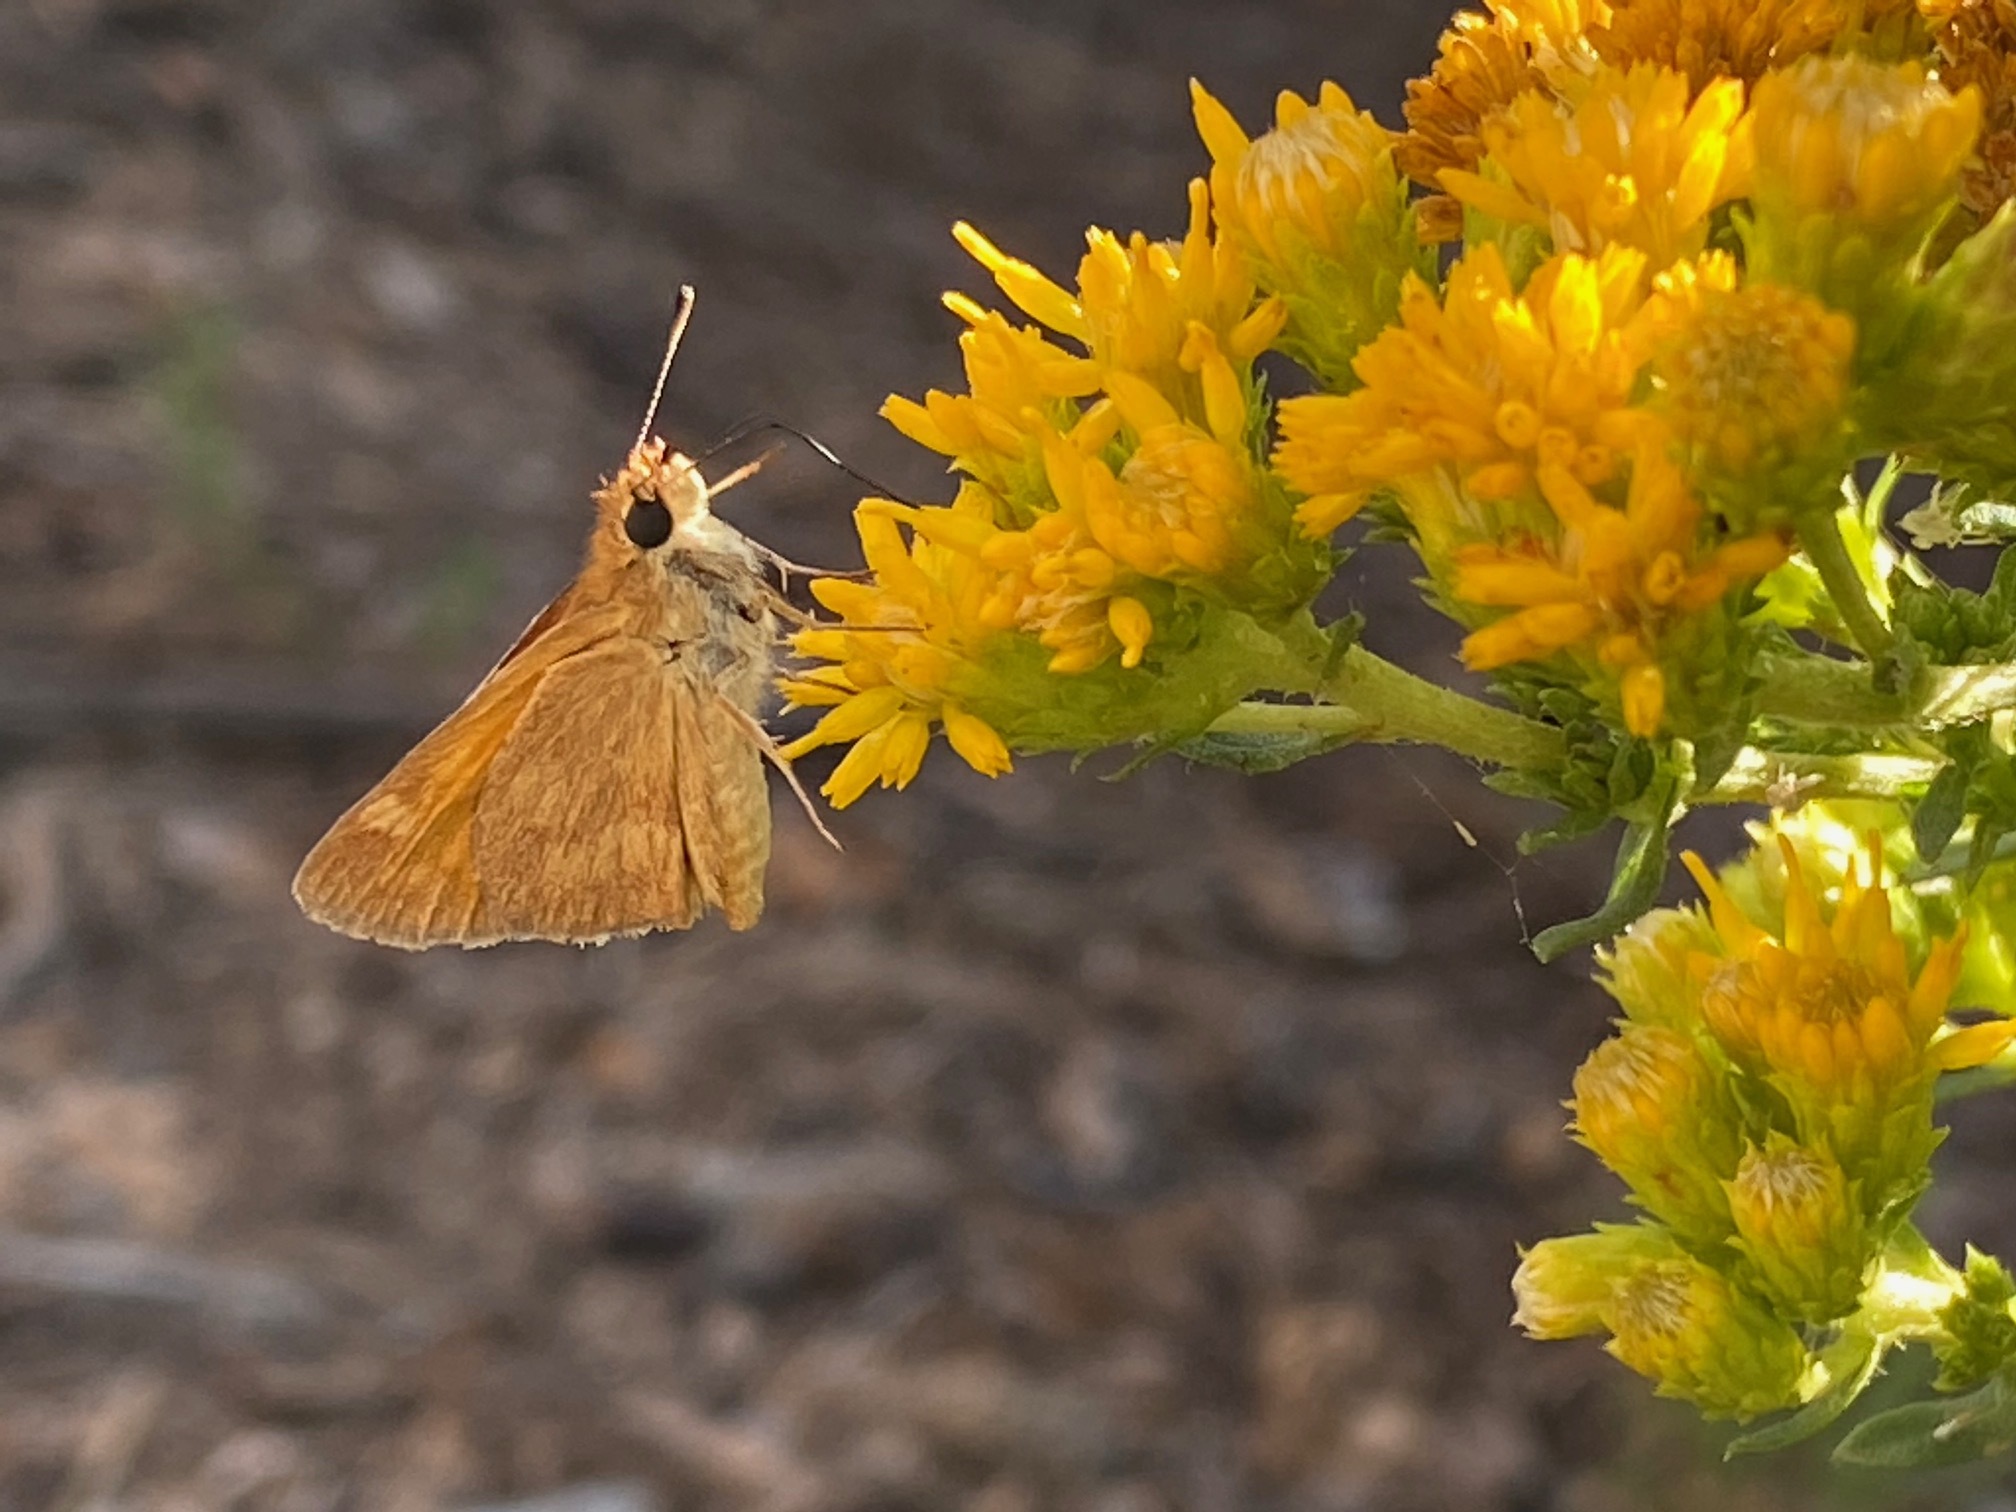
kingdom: Animalia
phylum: Arthropoda
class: Insecta
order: Lepidoptera
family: Hesperiidae
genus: Ochlodes
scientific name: Ochlodes sylvanoides
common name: Woodland skipper
